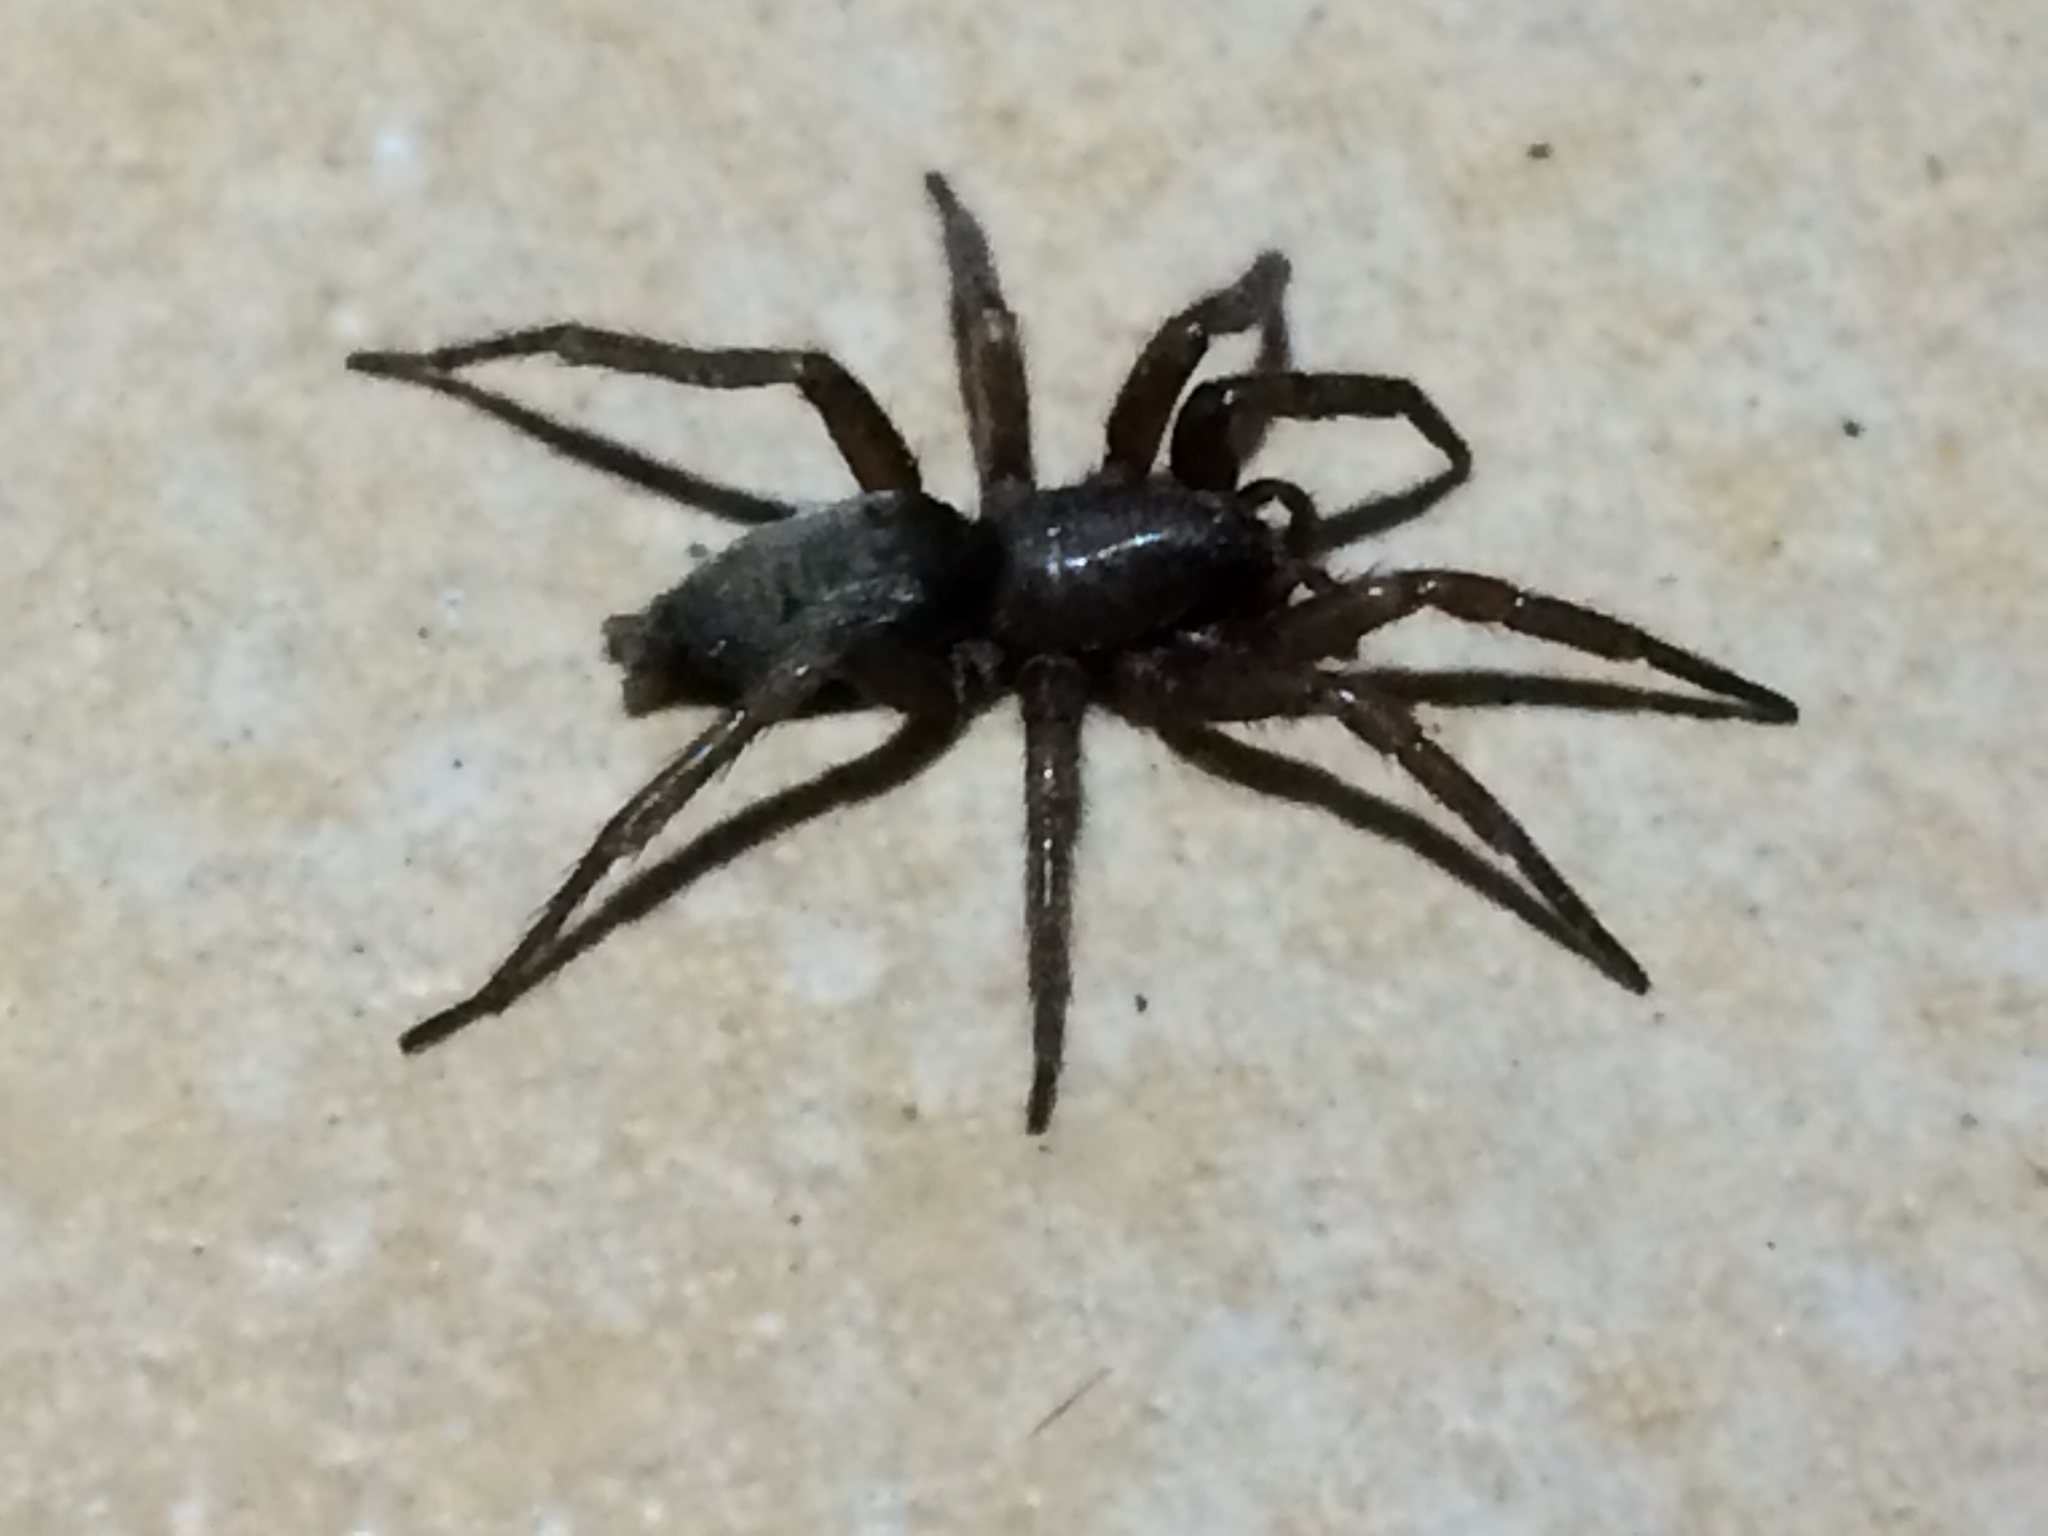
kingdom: Animalia
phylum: Arthropoda
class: Arachnida
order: Araneae
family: Gnaphosidae
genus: Scotophaeus
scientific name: Scotophaeus blackwalli
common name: Mouse spider
